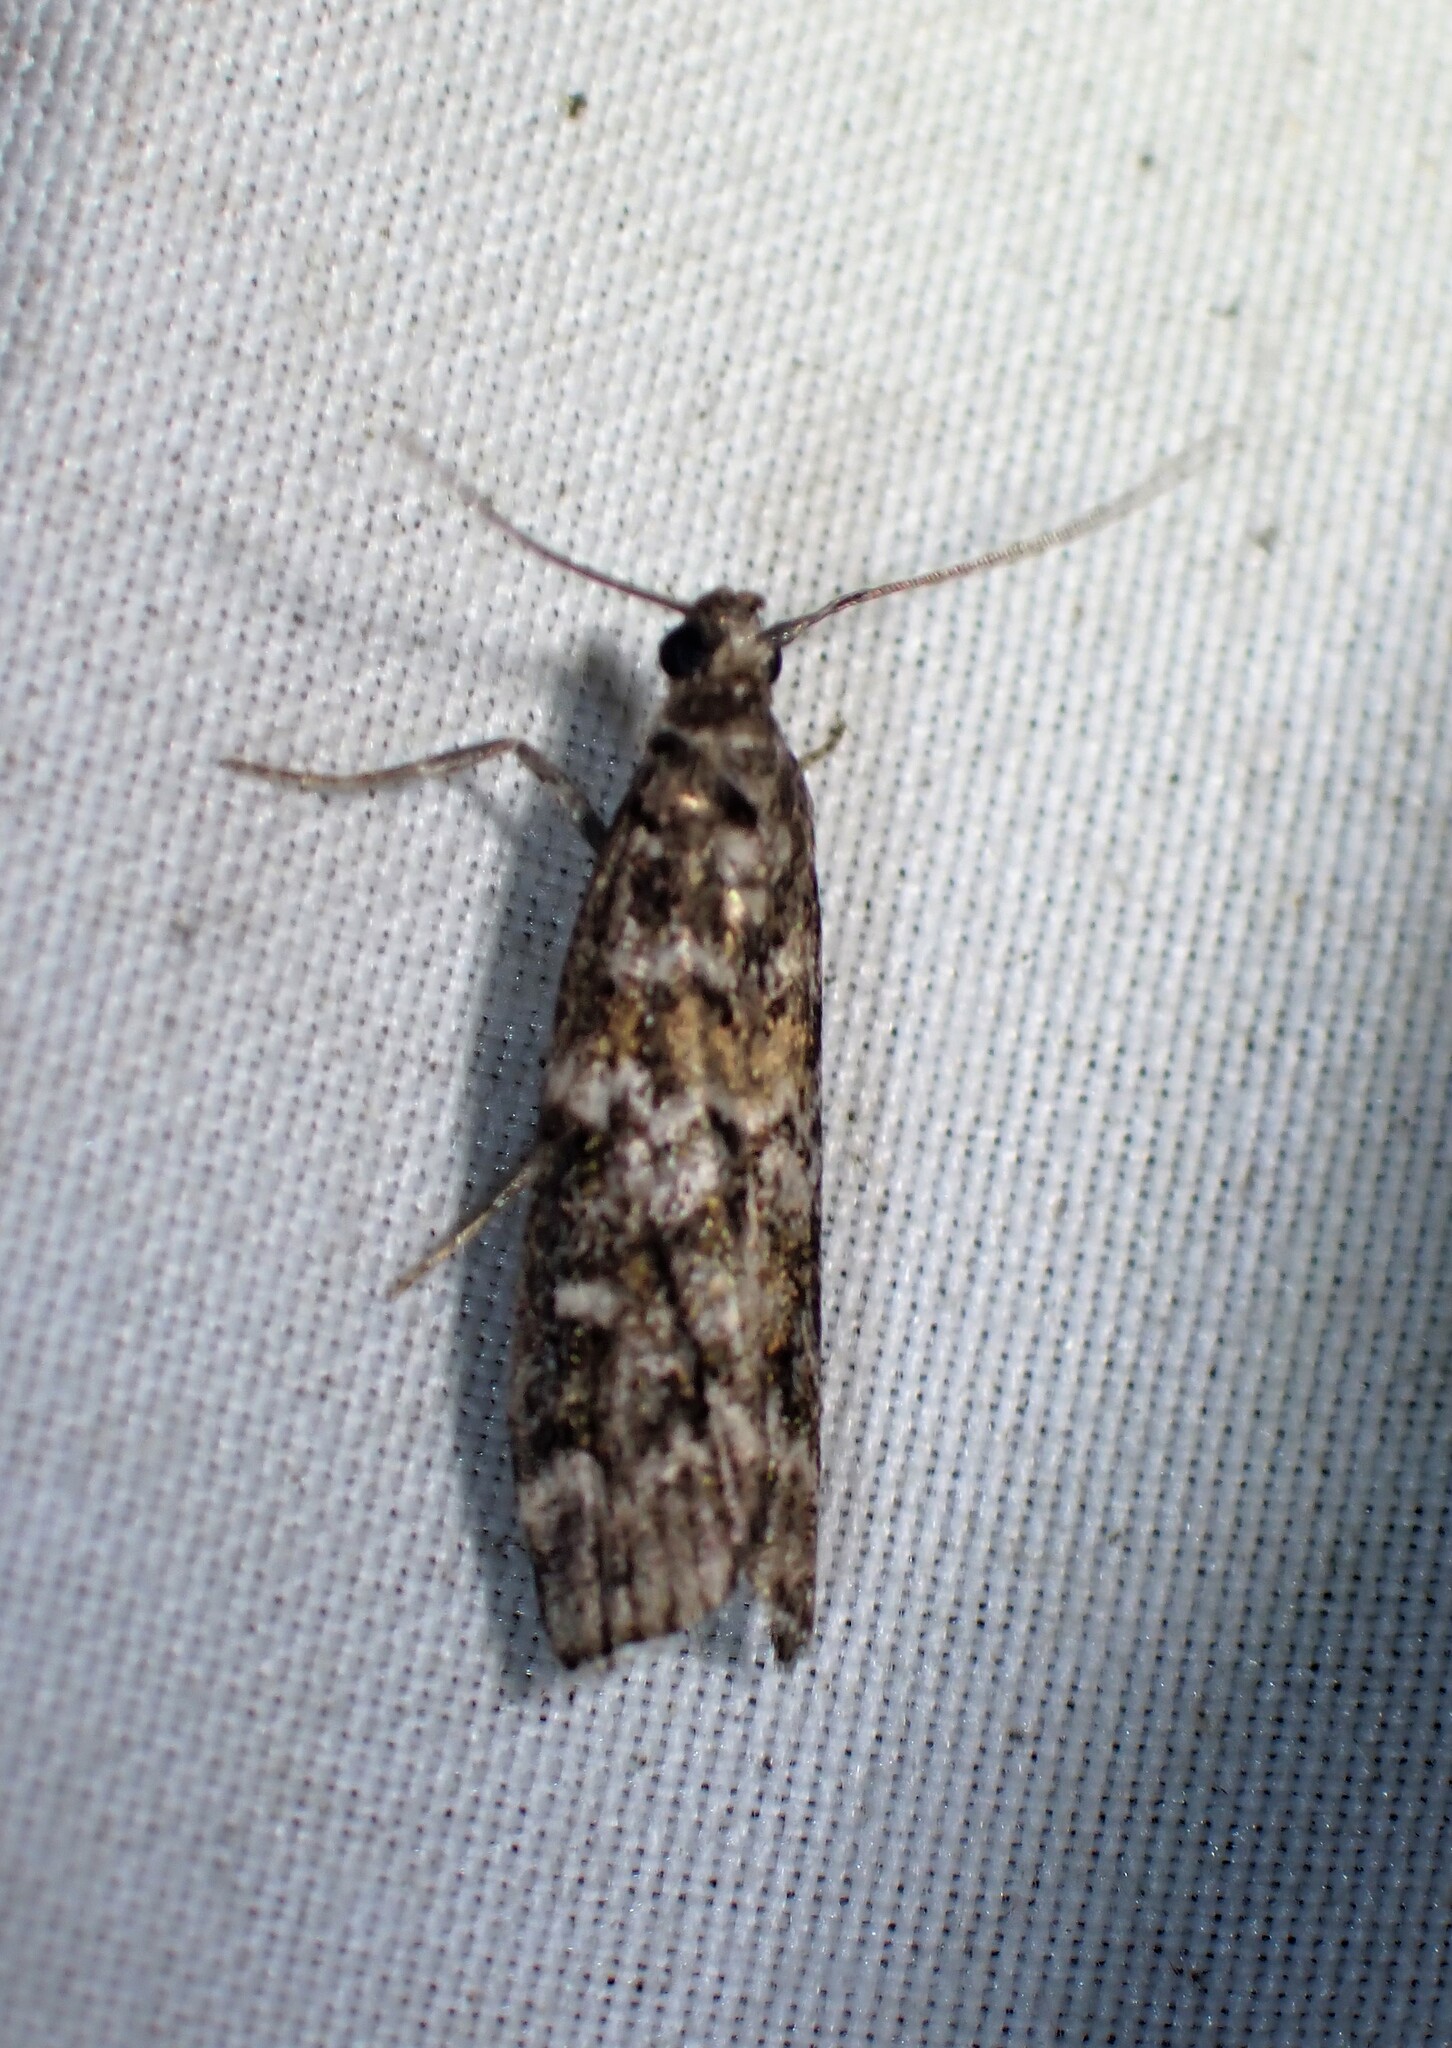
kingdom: Animalia
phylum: Arthropoda
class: Insecta
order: Lepidoptera
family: Pyralidae
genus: Dioryctria
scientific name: Dioryctria reniculelloides
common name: Spruce coneworm moth
